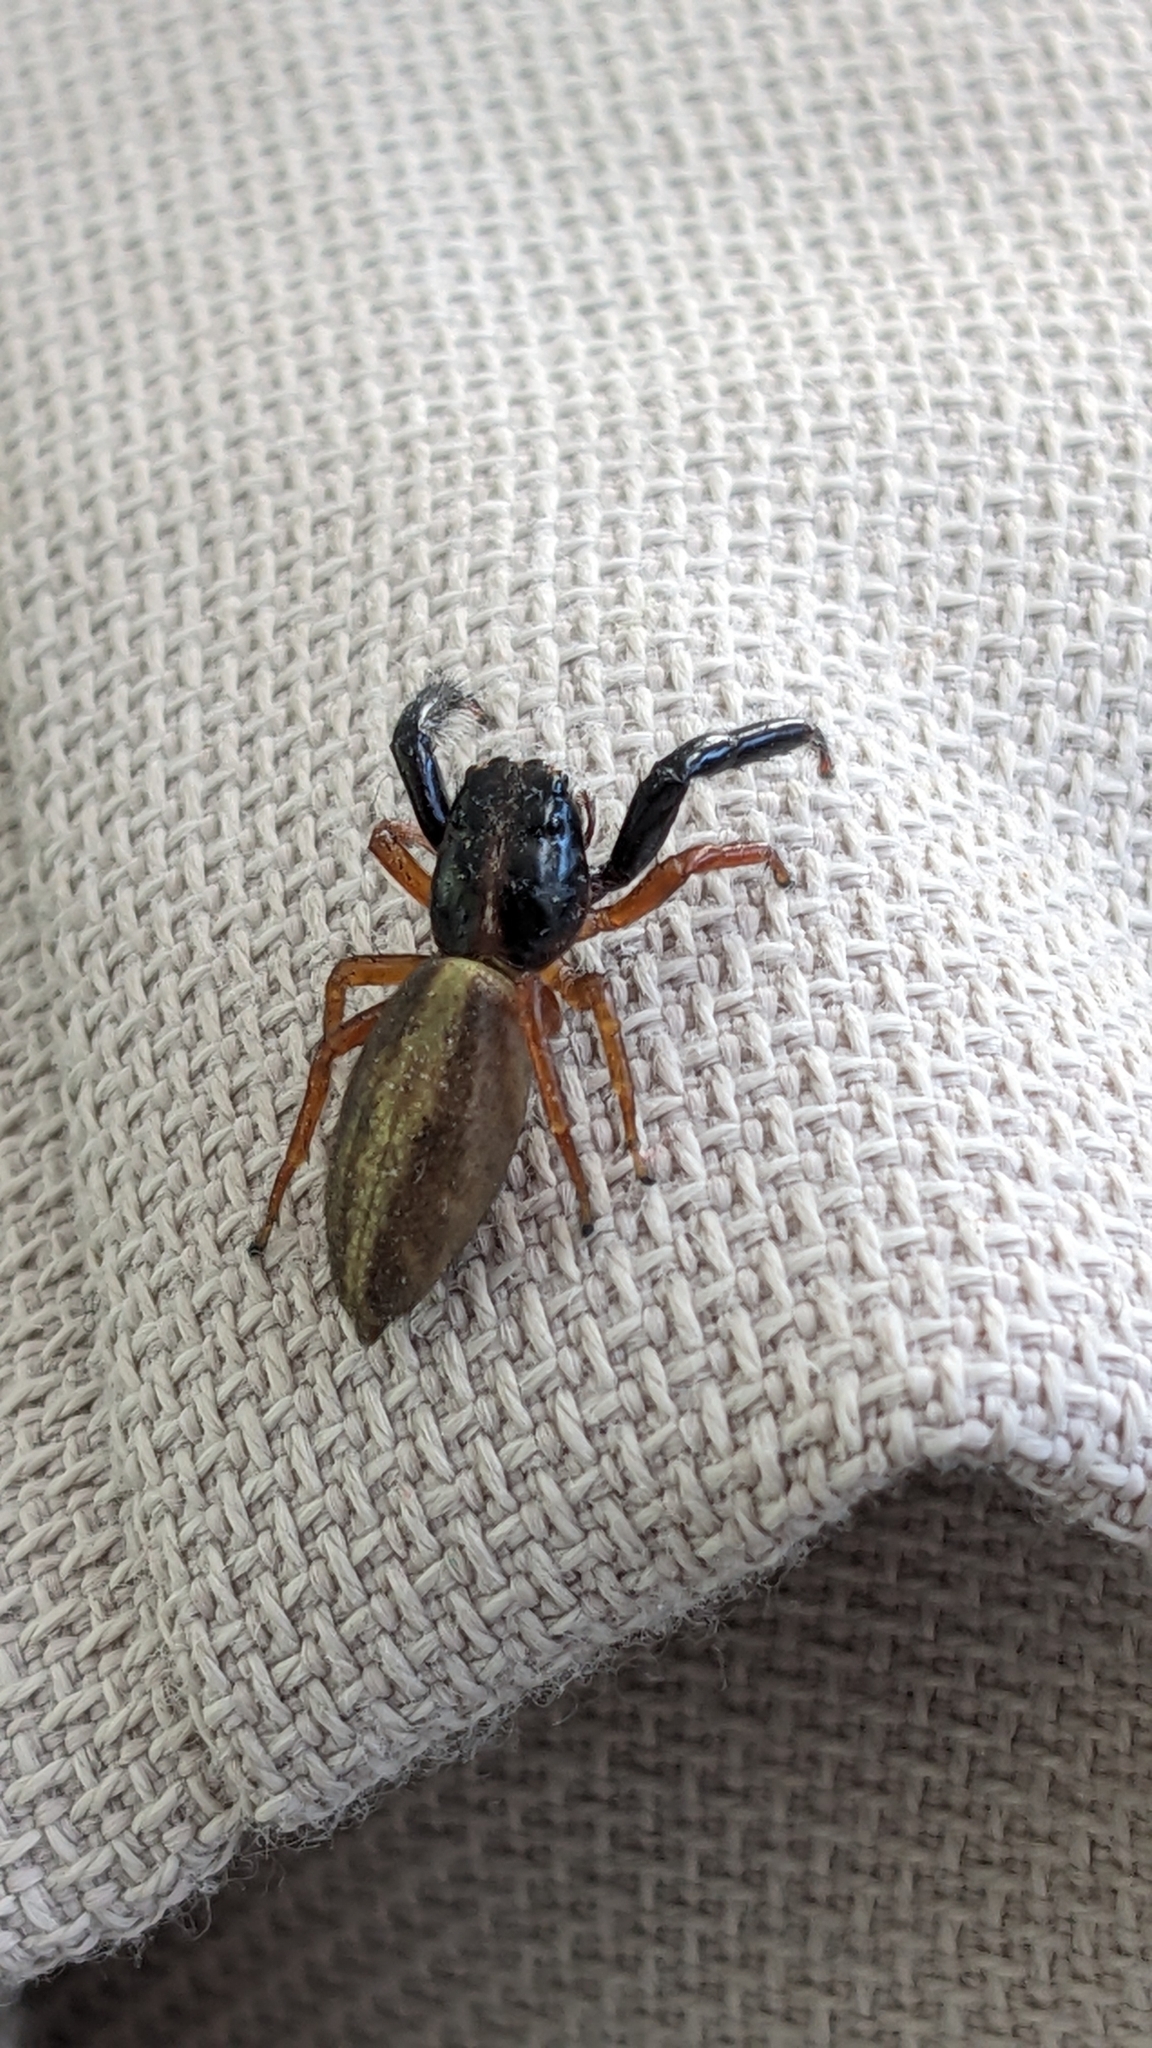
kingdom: Animalia
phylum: Arthropoda
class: Arachnida
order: Araneae
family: Salticidae
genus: Trite
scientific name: Trite planiceps
